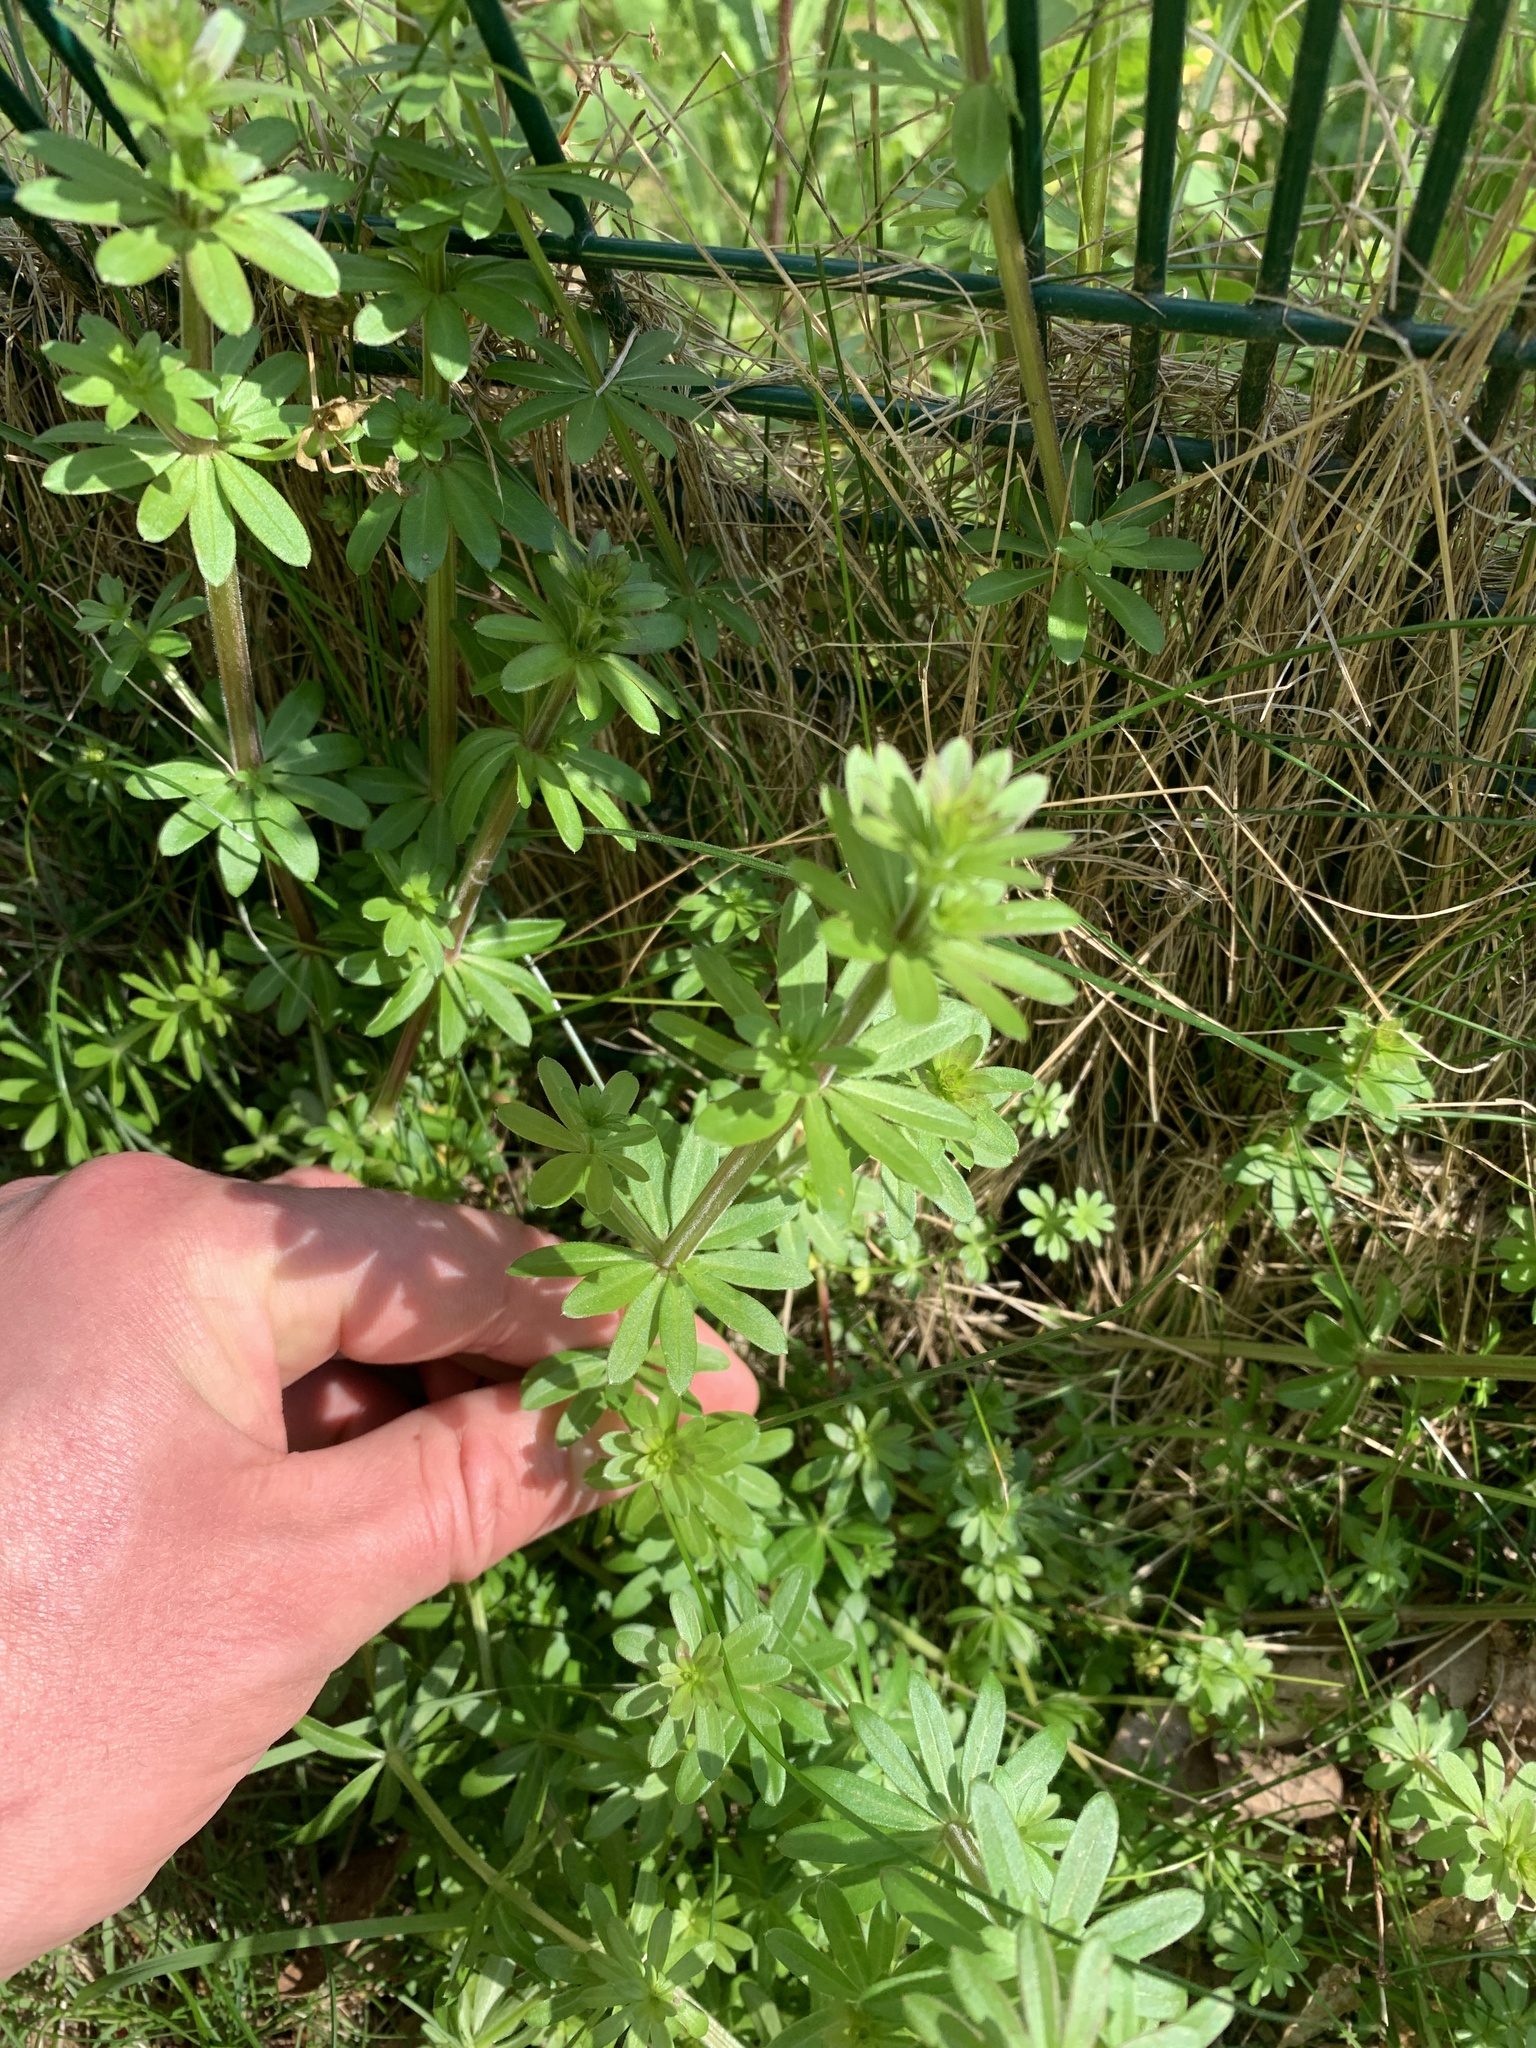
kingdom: Plantae
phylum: Tracheophyta
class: Magnoliopsida
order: Gentianales
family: Rubiaceae
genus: Galium
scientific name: Galium mollugo
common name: Hedge bedstraw
